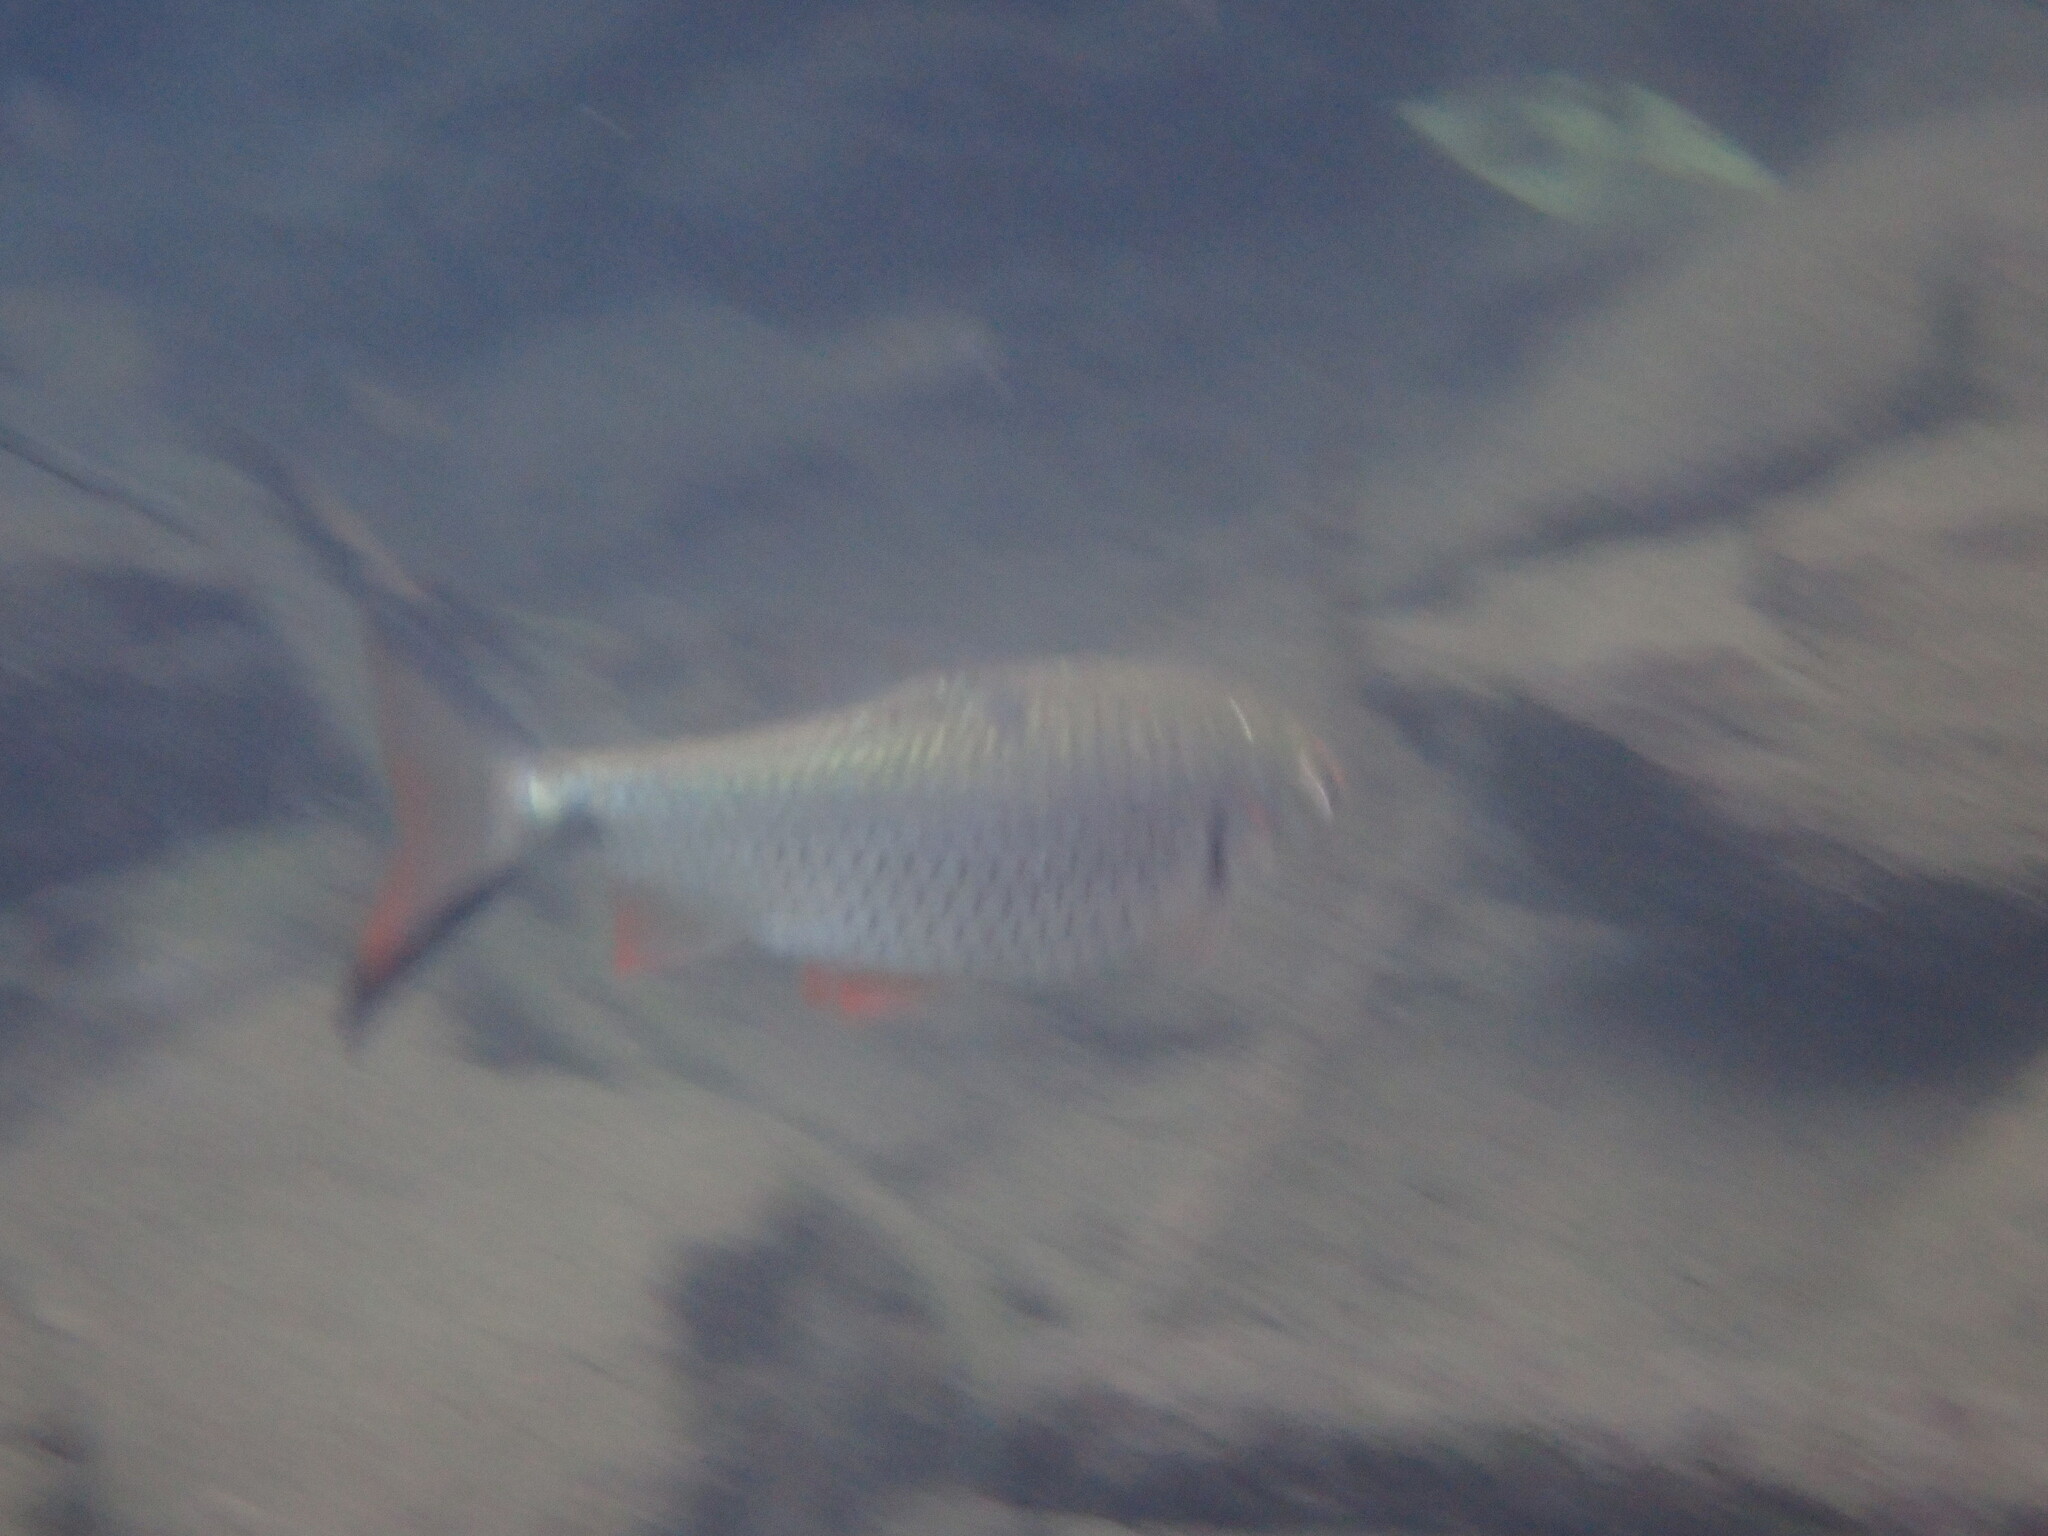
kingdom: Animalia
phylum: Chordata
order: Cypriniformes
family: Cyprinidae
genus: Systomus
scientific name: Systomus orphoides
